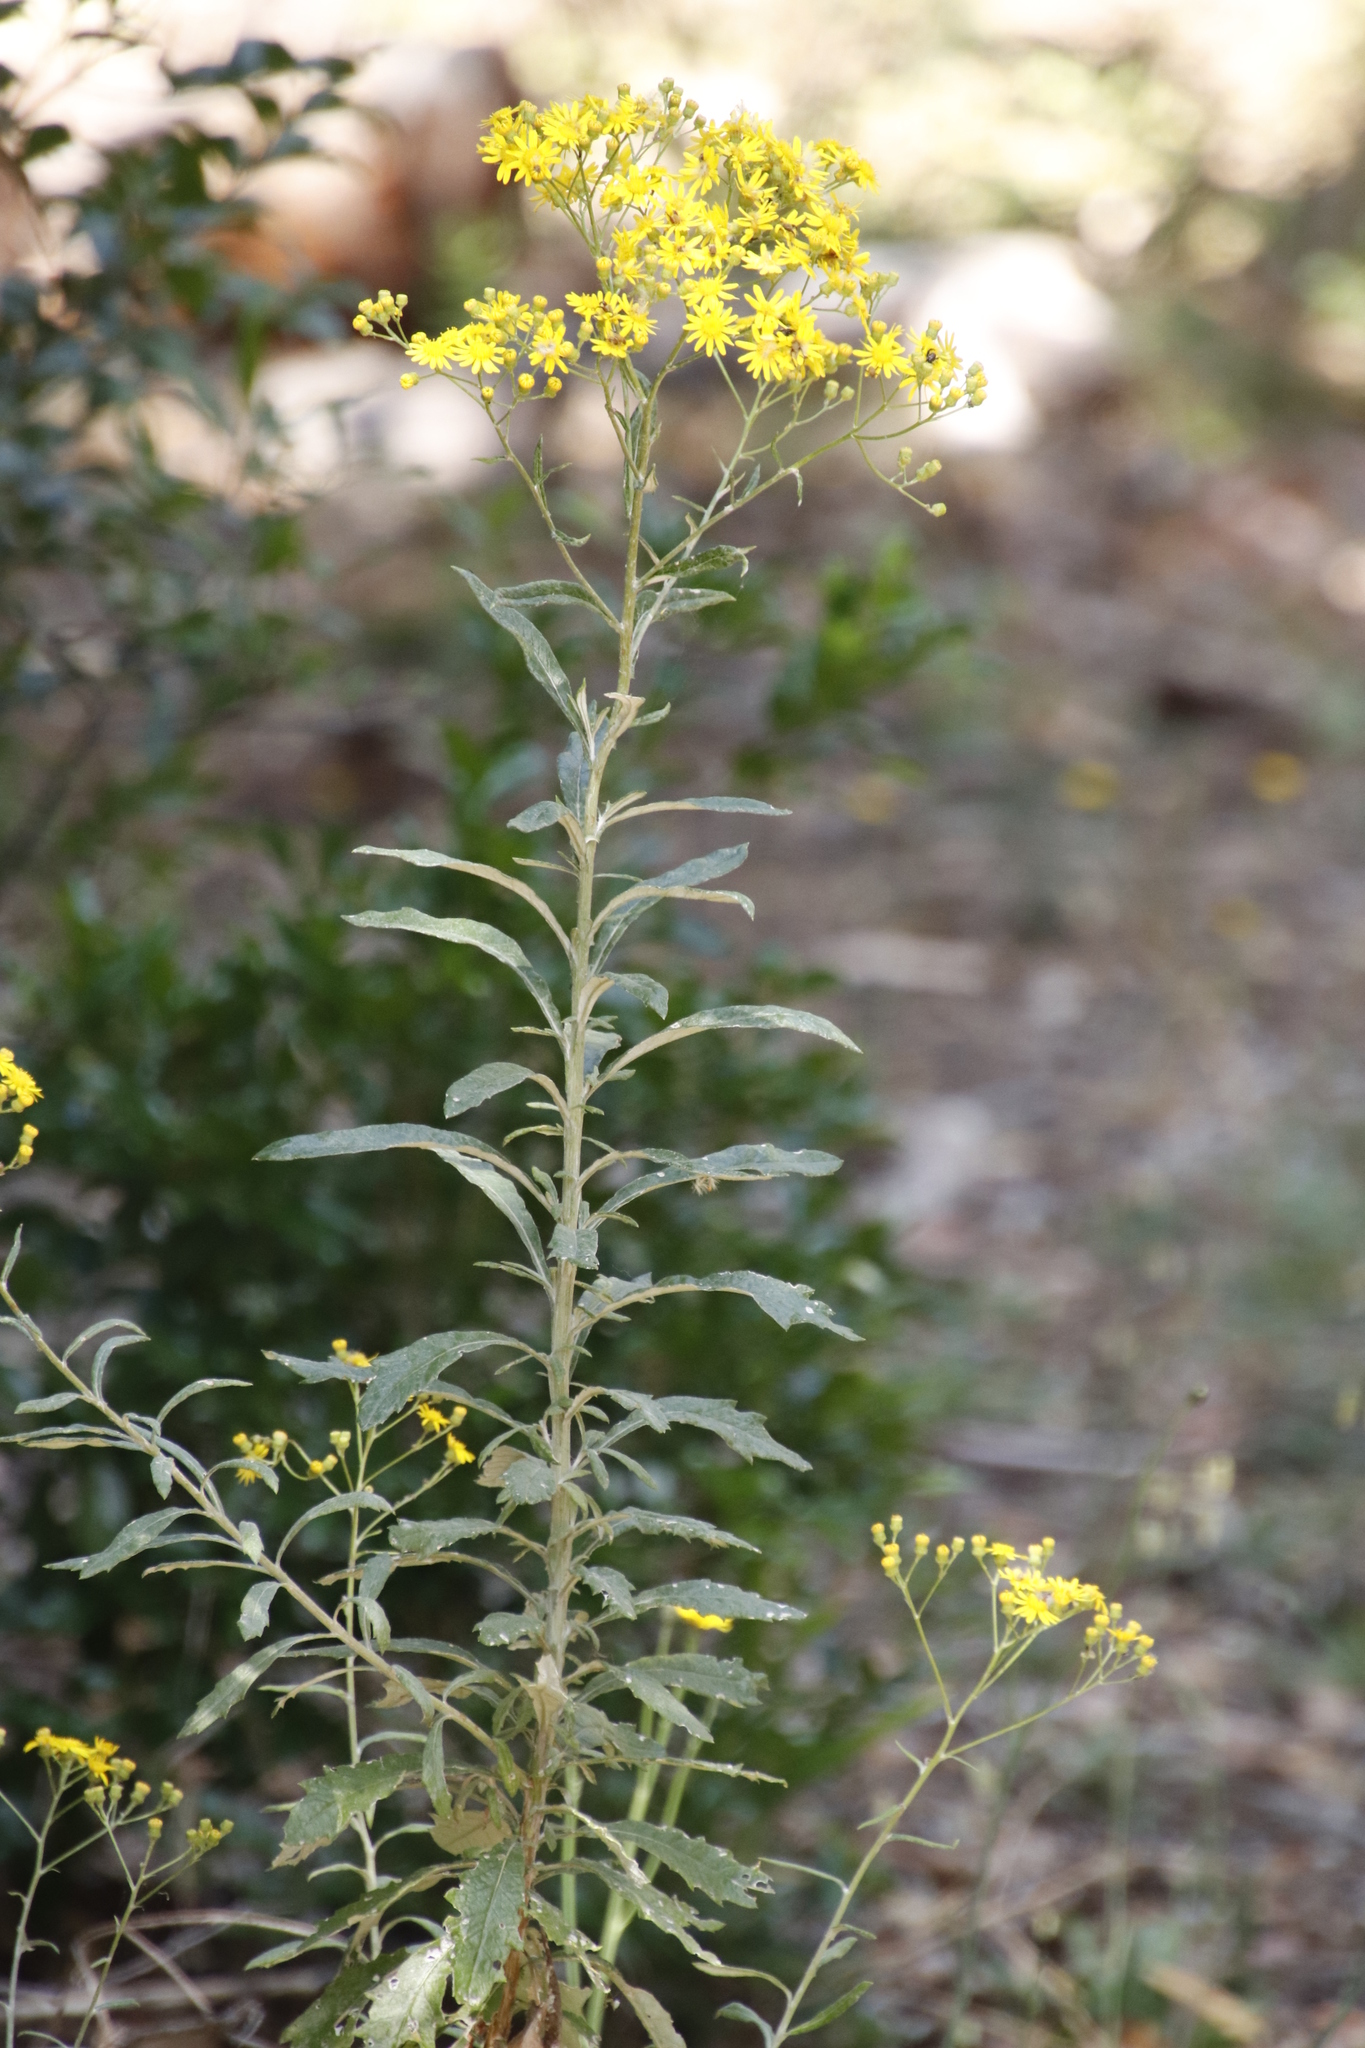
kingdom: Plantae
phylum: Tracheophyta
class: Magnoliopsida
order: Asterales
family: Asteraceae
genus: Senecio
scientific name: Senecio pterophorus
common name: Shoddy ragwort
